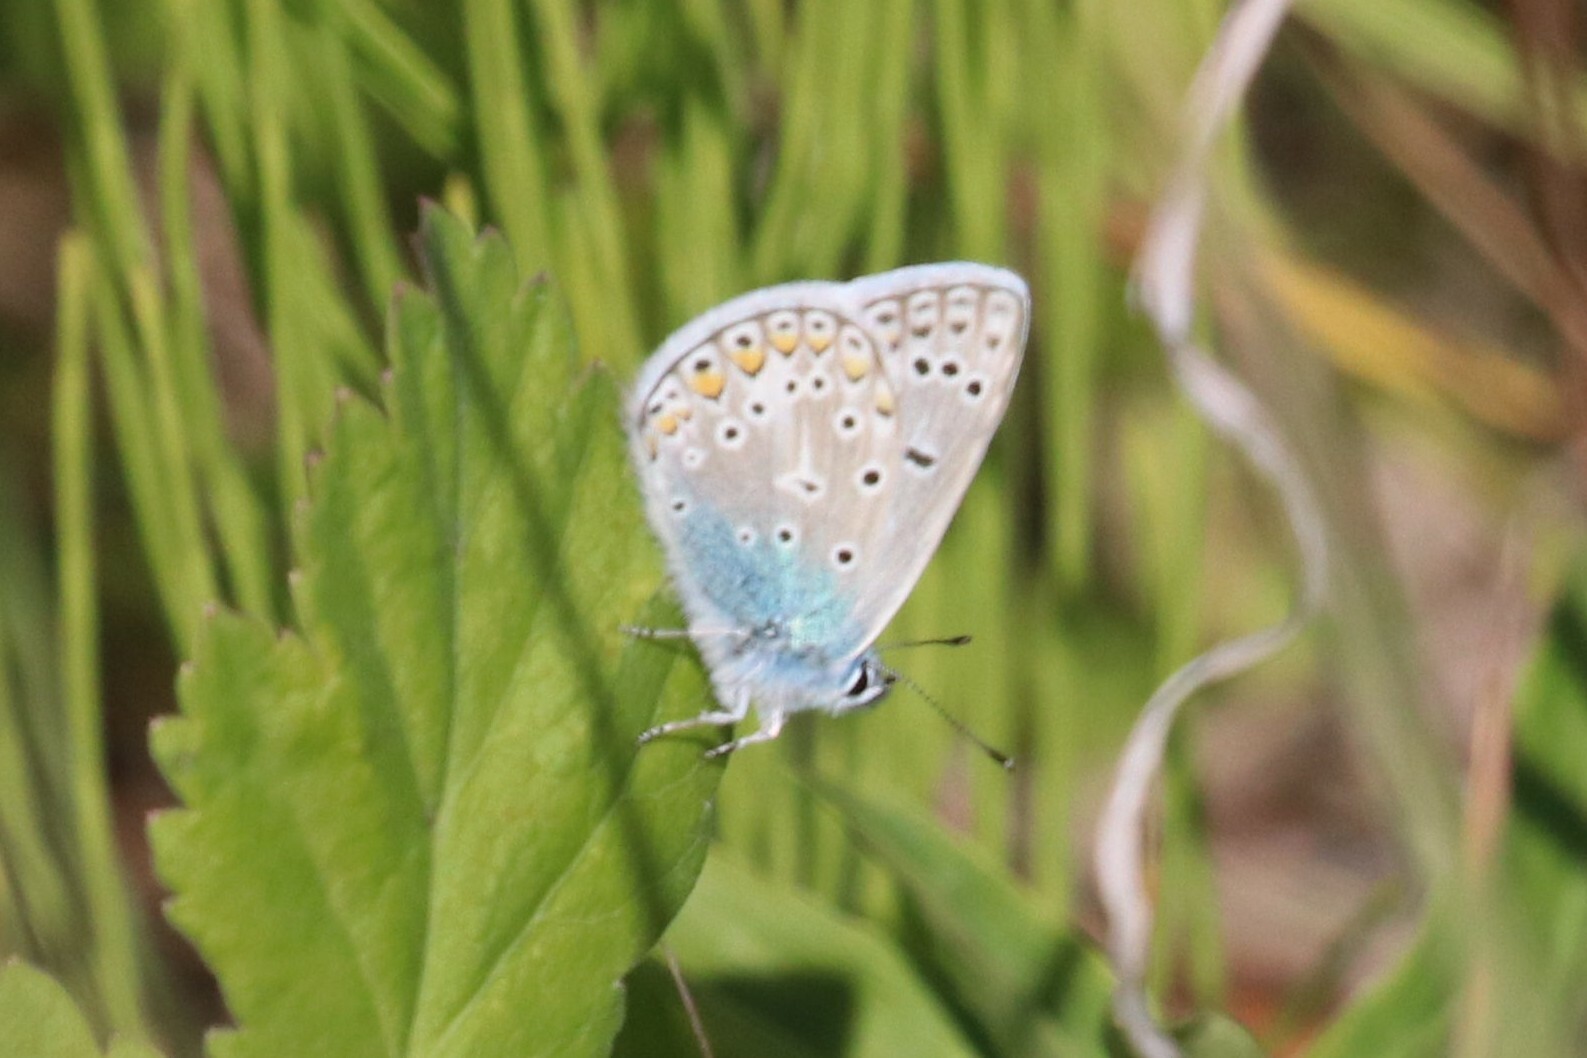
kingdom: Animalia
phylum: Arthropoda
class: Insecta
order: Lepidoptera
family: Lycaenidae
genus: Polyommatus
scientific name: Polyommatus icarus
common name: Common blue
